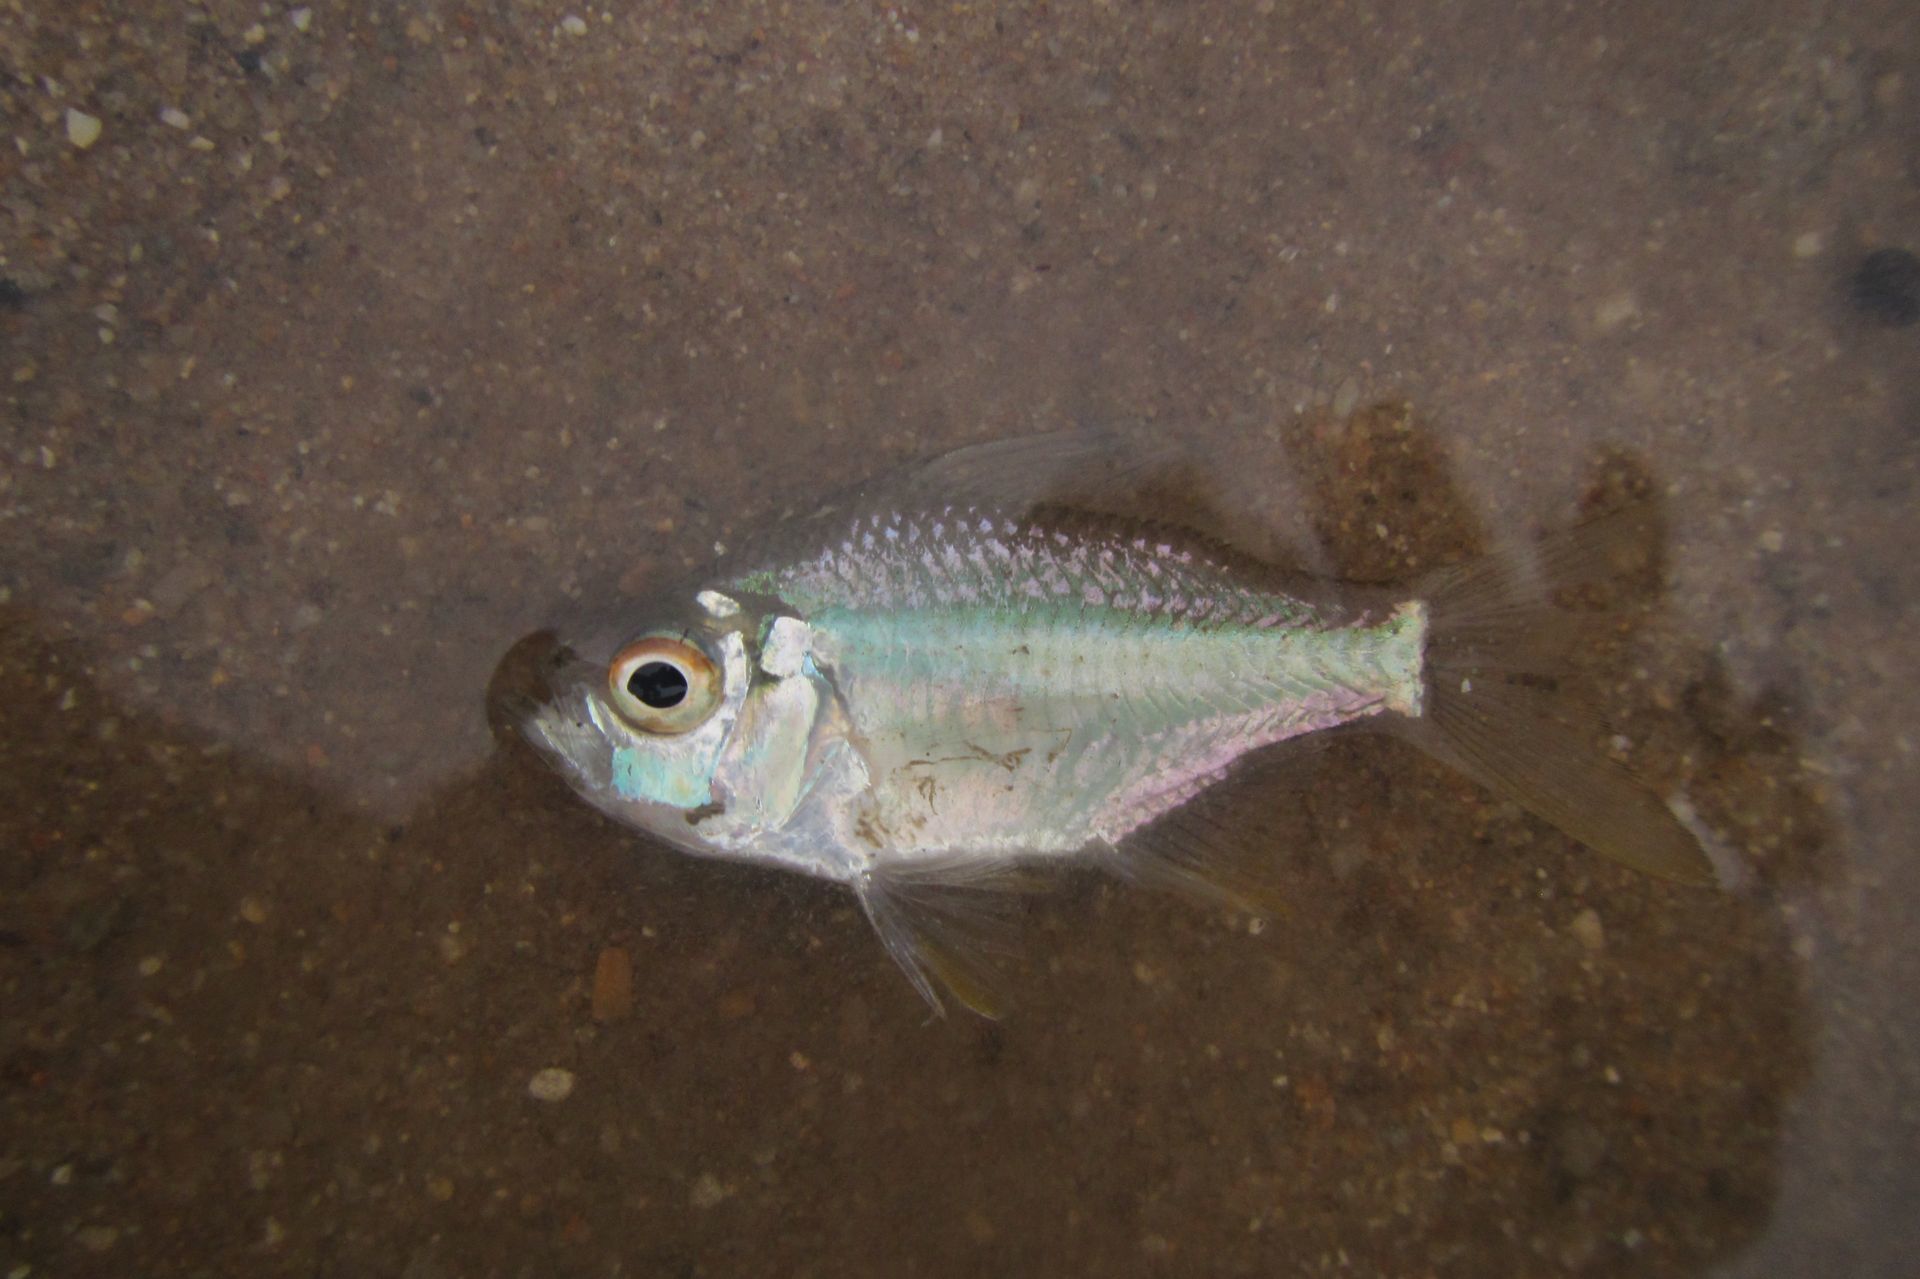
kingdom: Animalia
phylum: Chordata
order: Perciformes
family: Ambassidae
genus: Ambassis
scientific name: Ambassis nalua
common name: Scalloped perchlet
